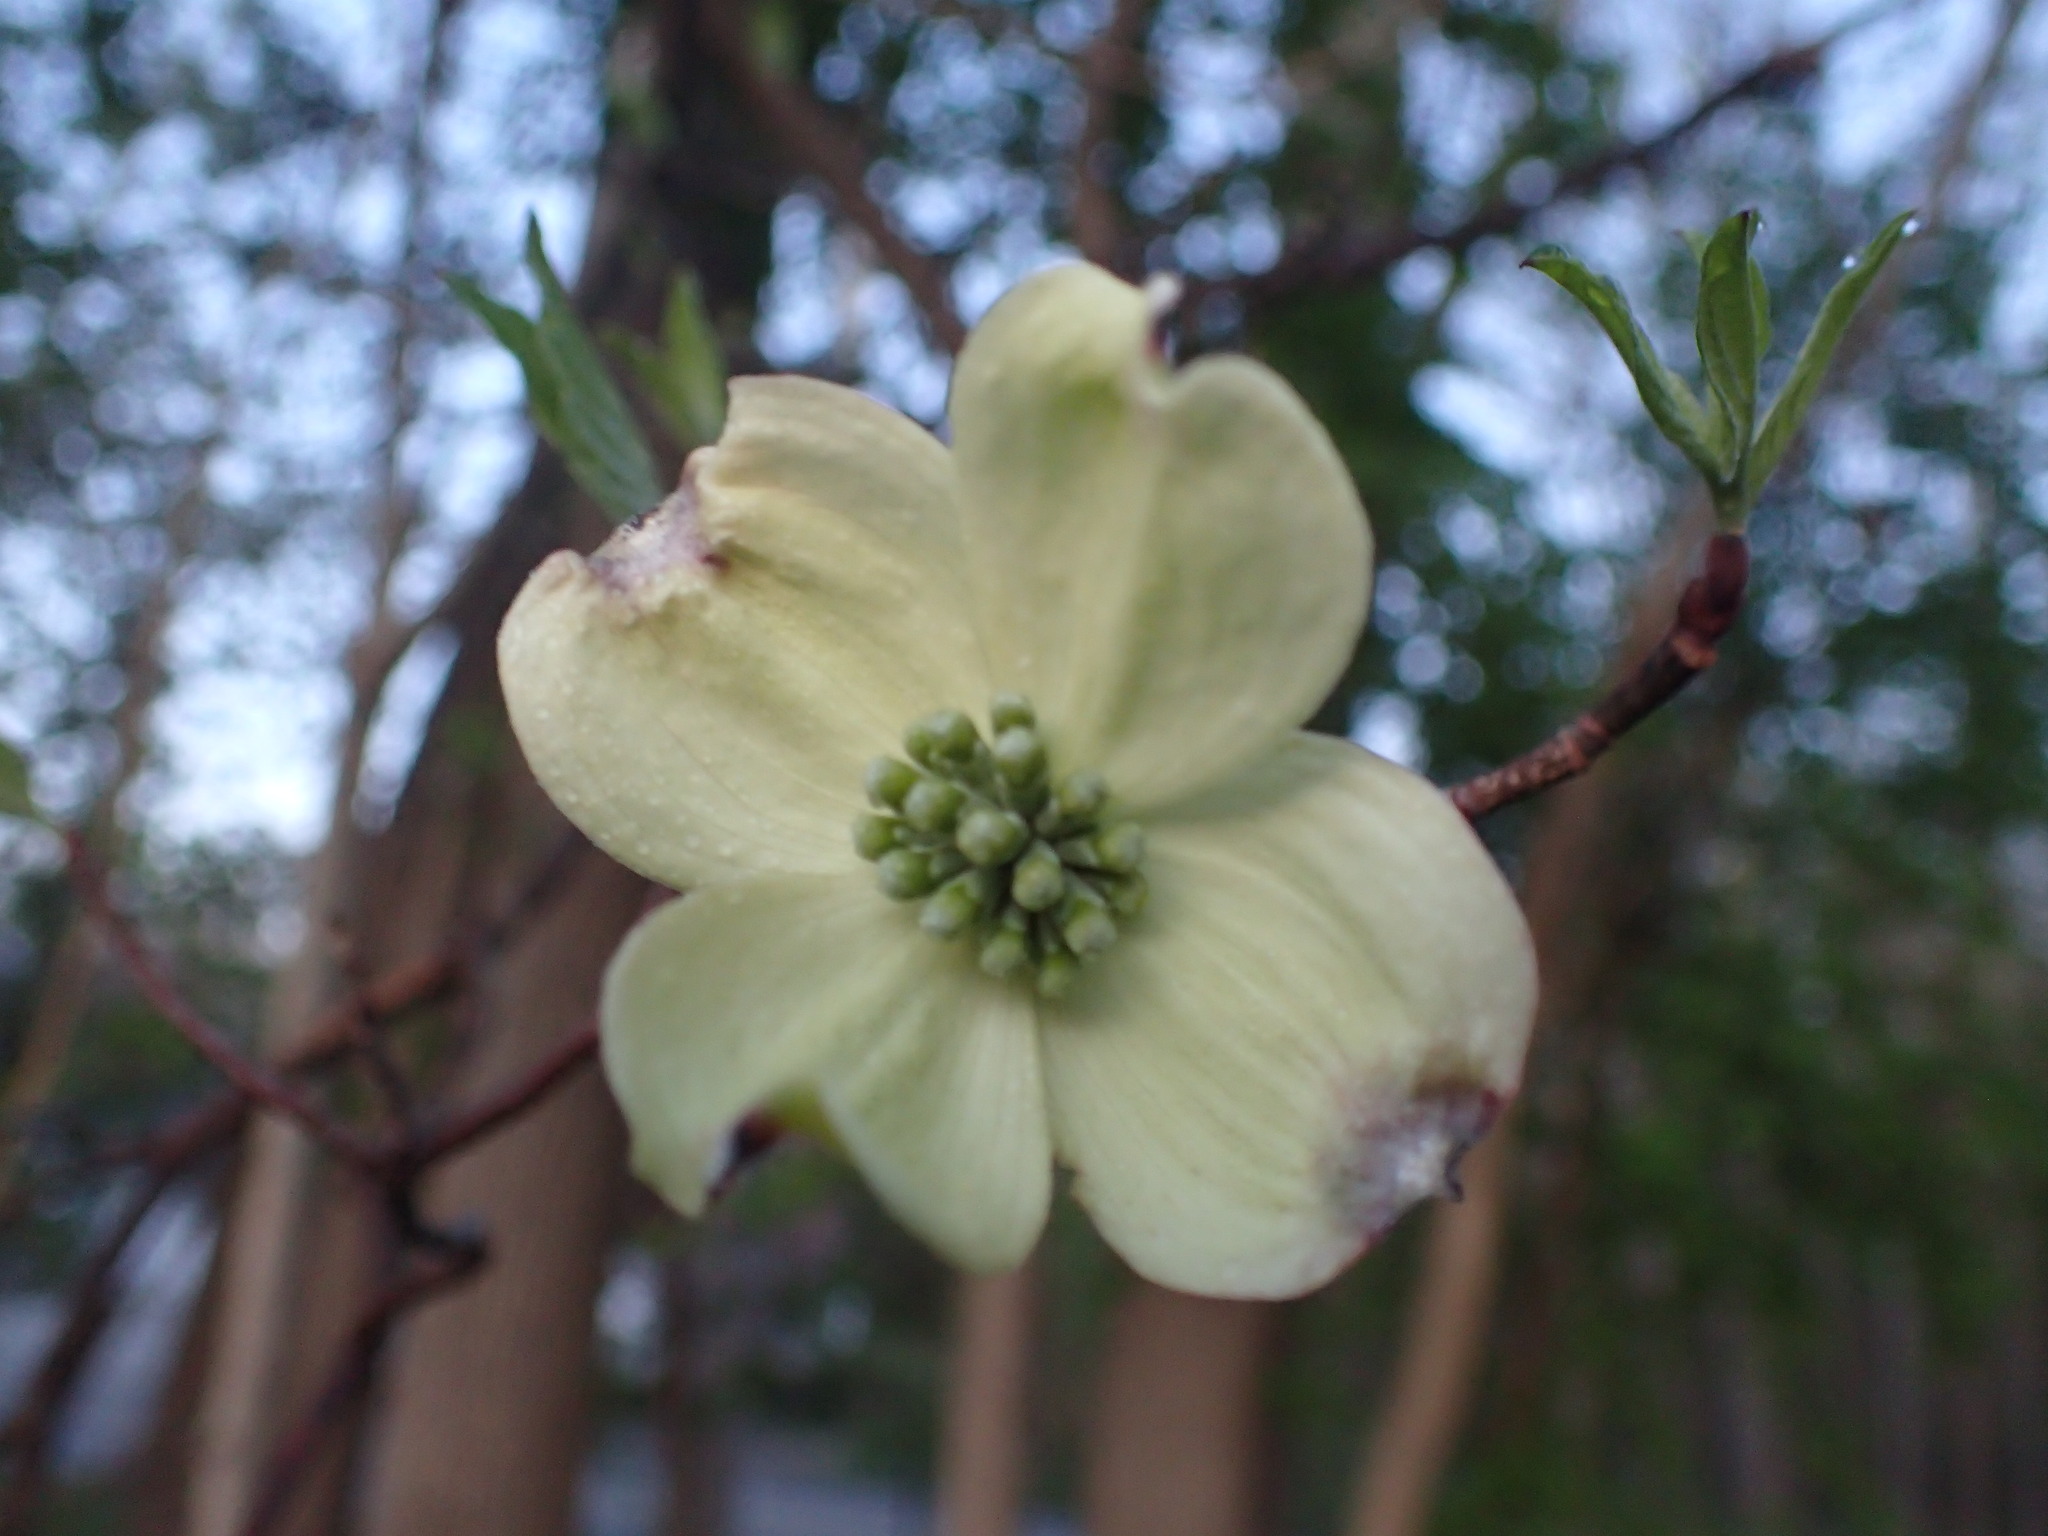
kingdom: Plantae
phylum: Tracheophyta
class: Magnoliopsida
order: Cornales
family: Cornaceae
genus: Cornus
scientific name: Cornus florida
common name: Flowering dogwood
